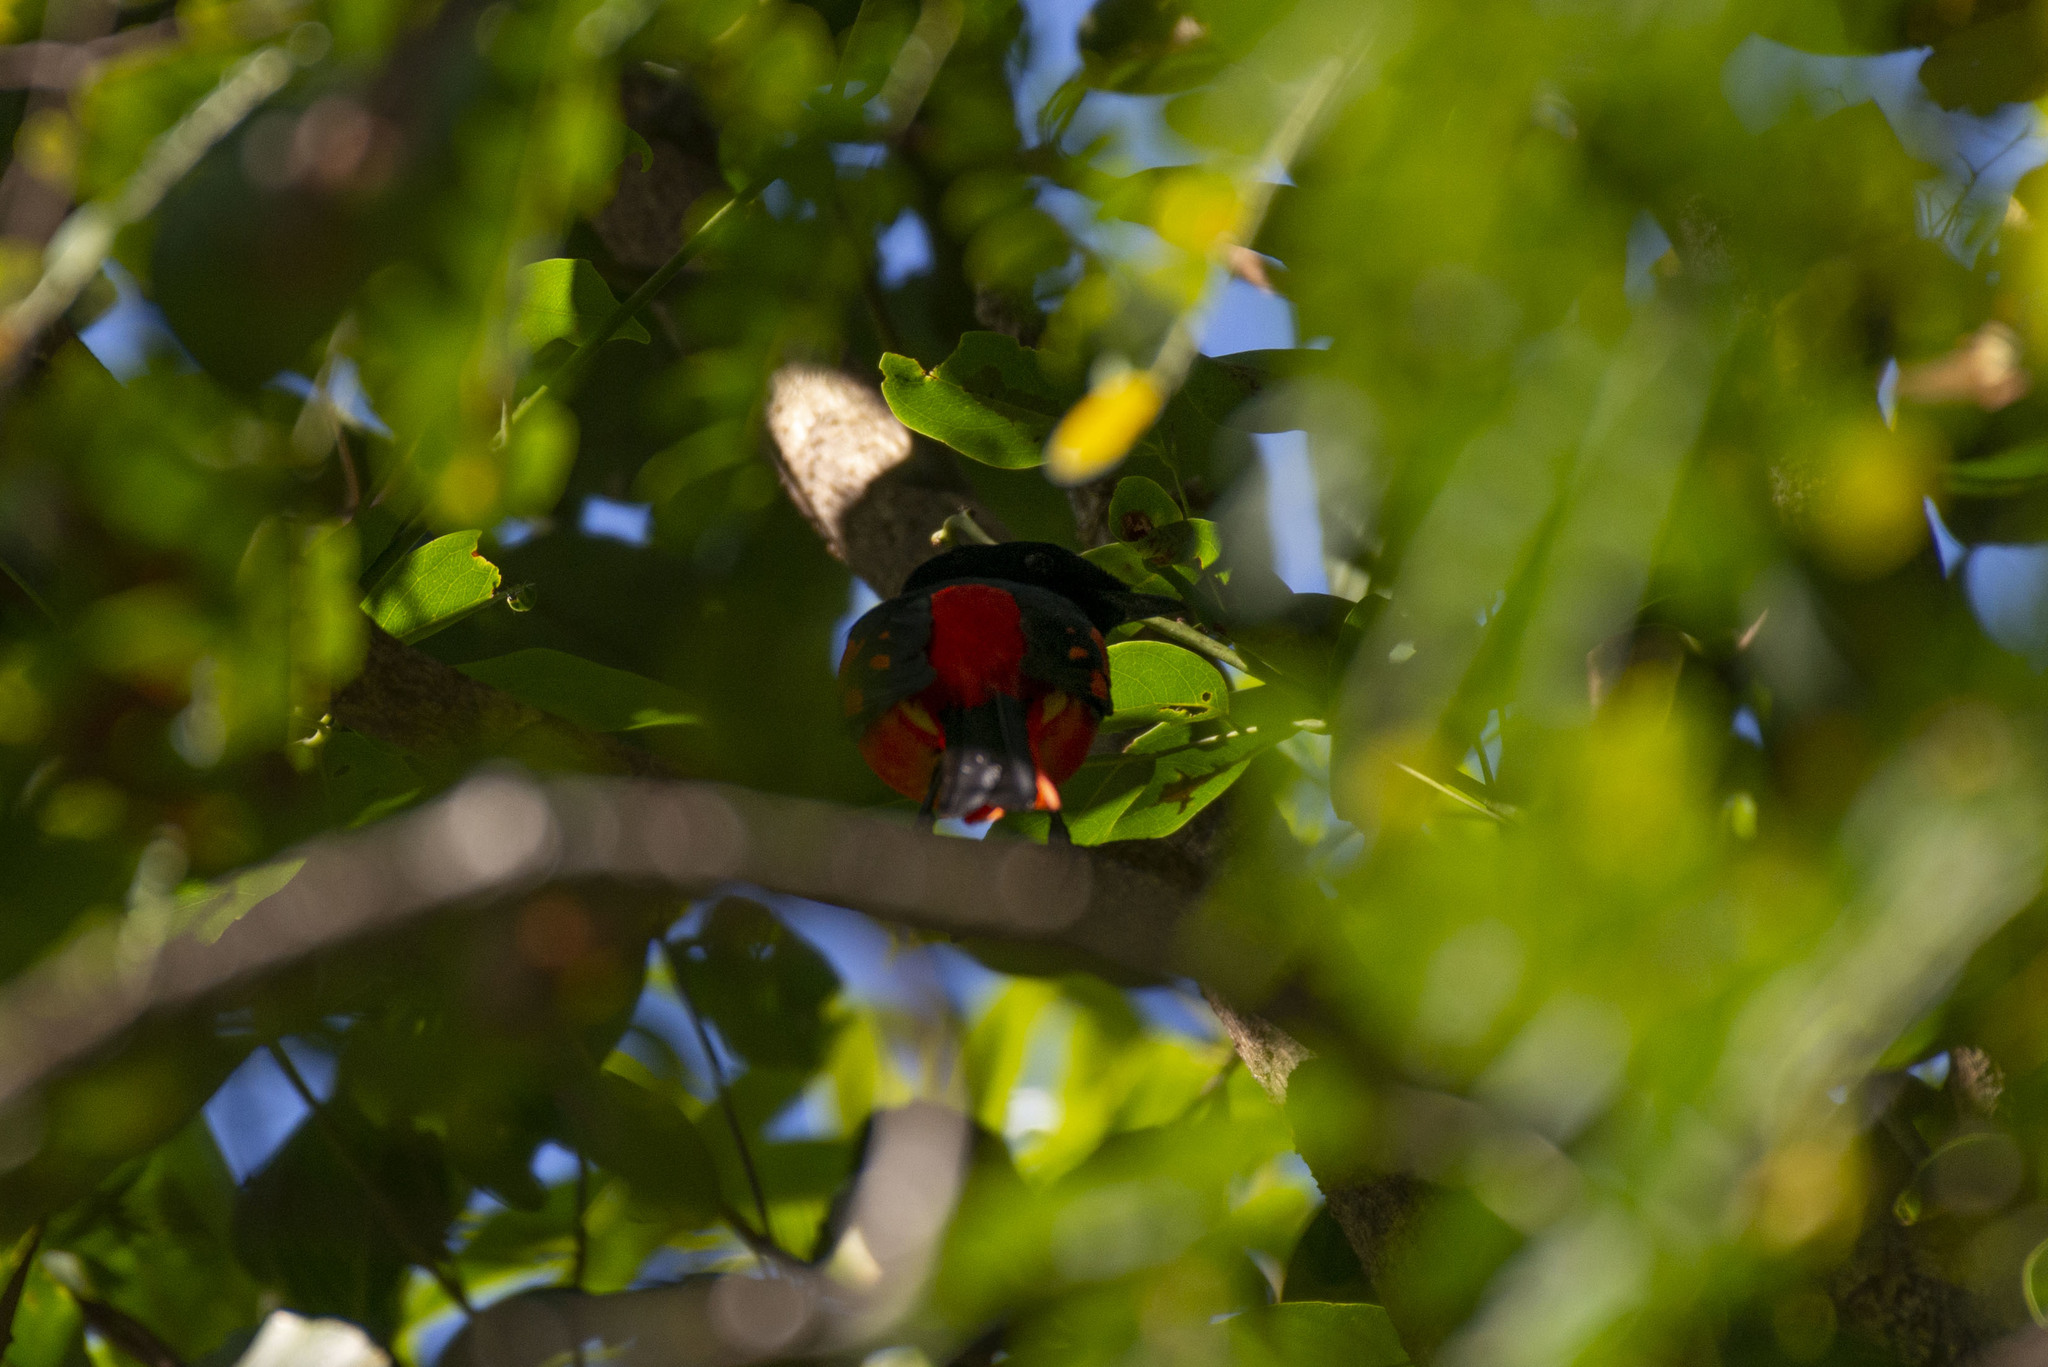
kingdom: Animalia
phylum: Chordata
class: Aves
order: Passeriformes
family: Campephagidae
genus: Pericrocotus
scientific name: Pericrocotus speciosus
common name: Scarlet minivet
